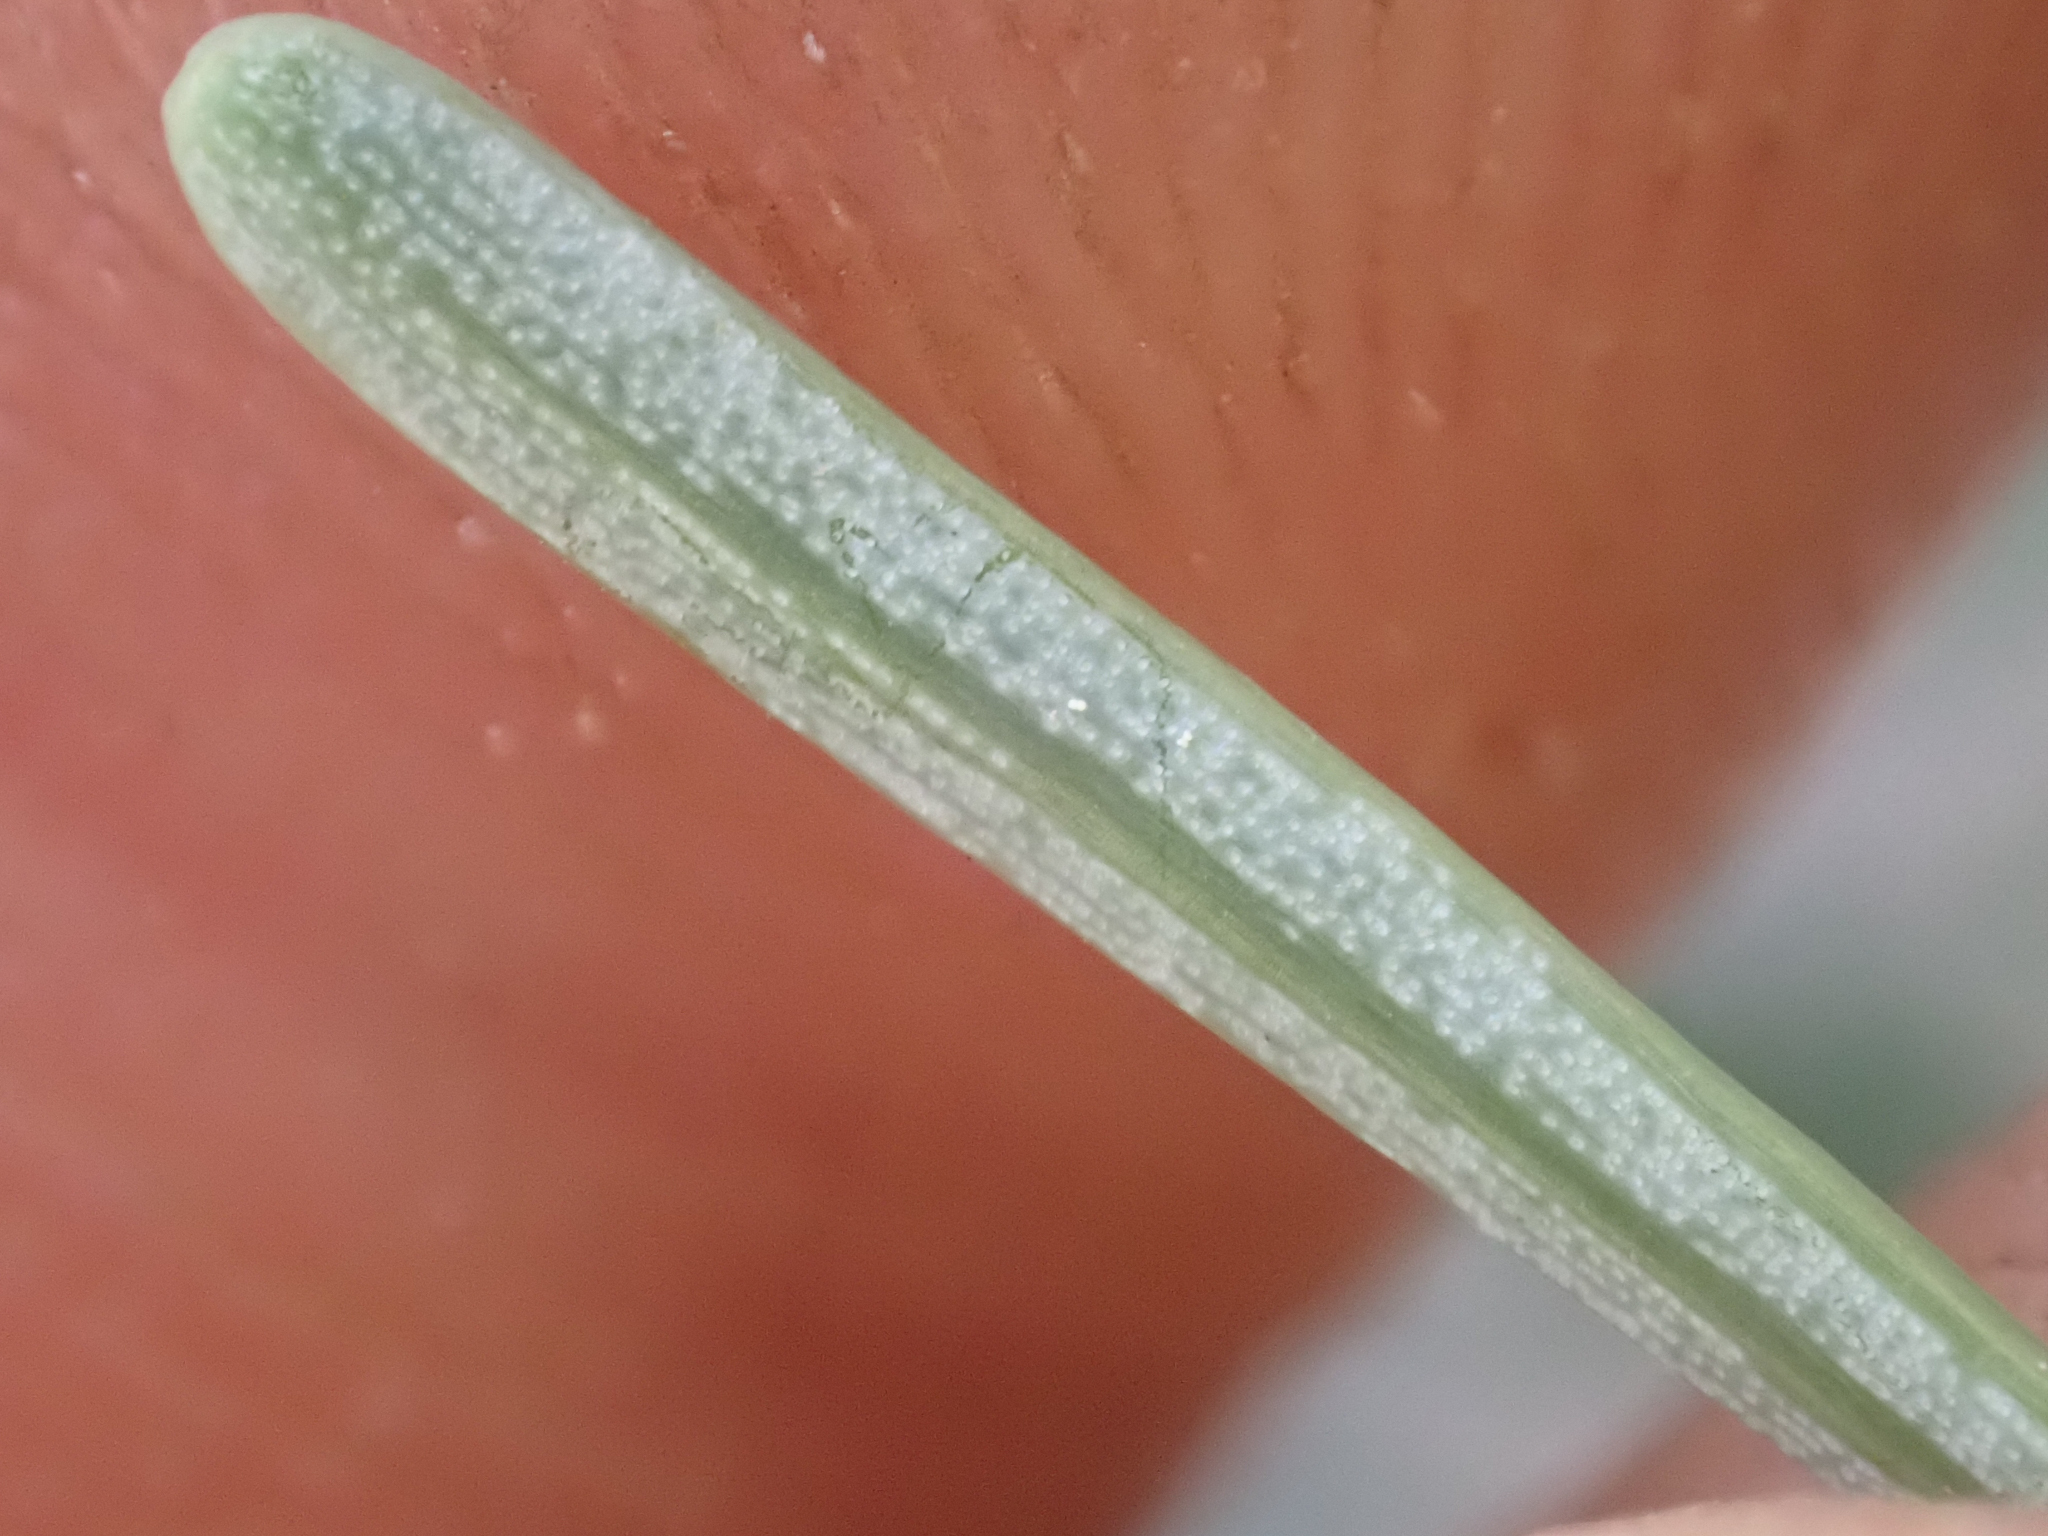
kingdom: Plantae
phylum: Tracheophyta
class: Pinopsida
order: Pinales
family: Pinaceae
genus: Abies
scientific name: Abies magnifica bis
